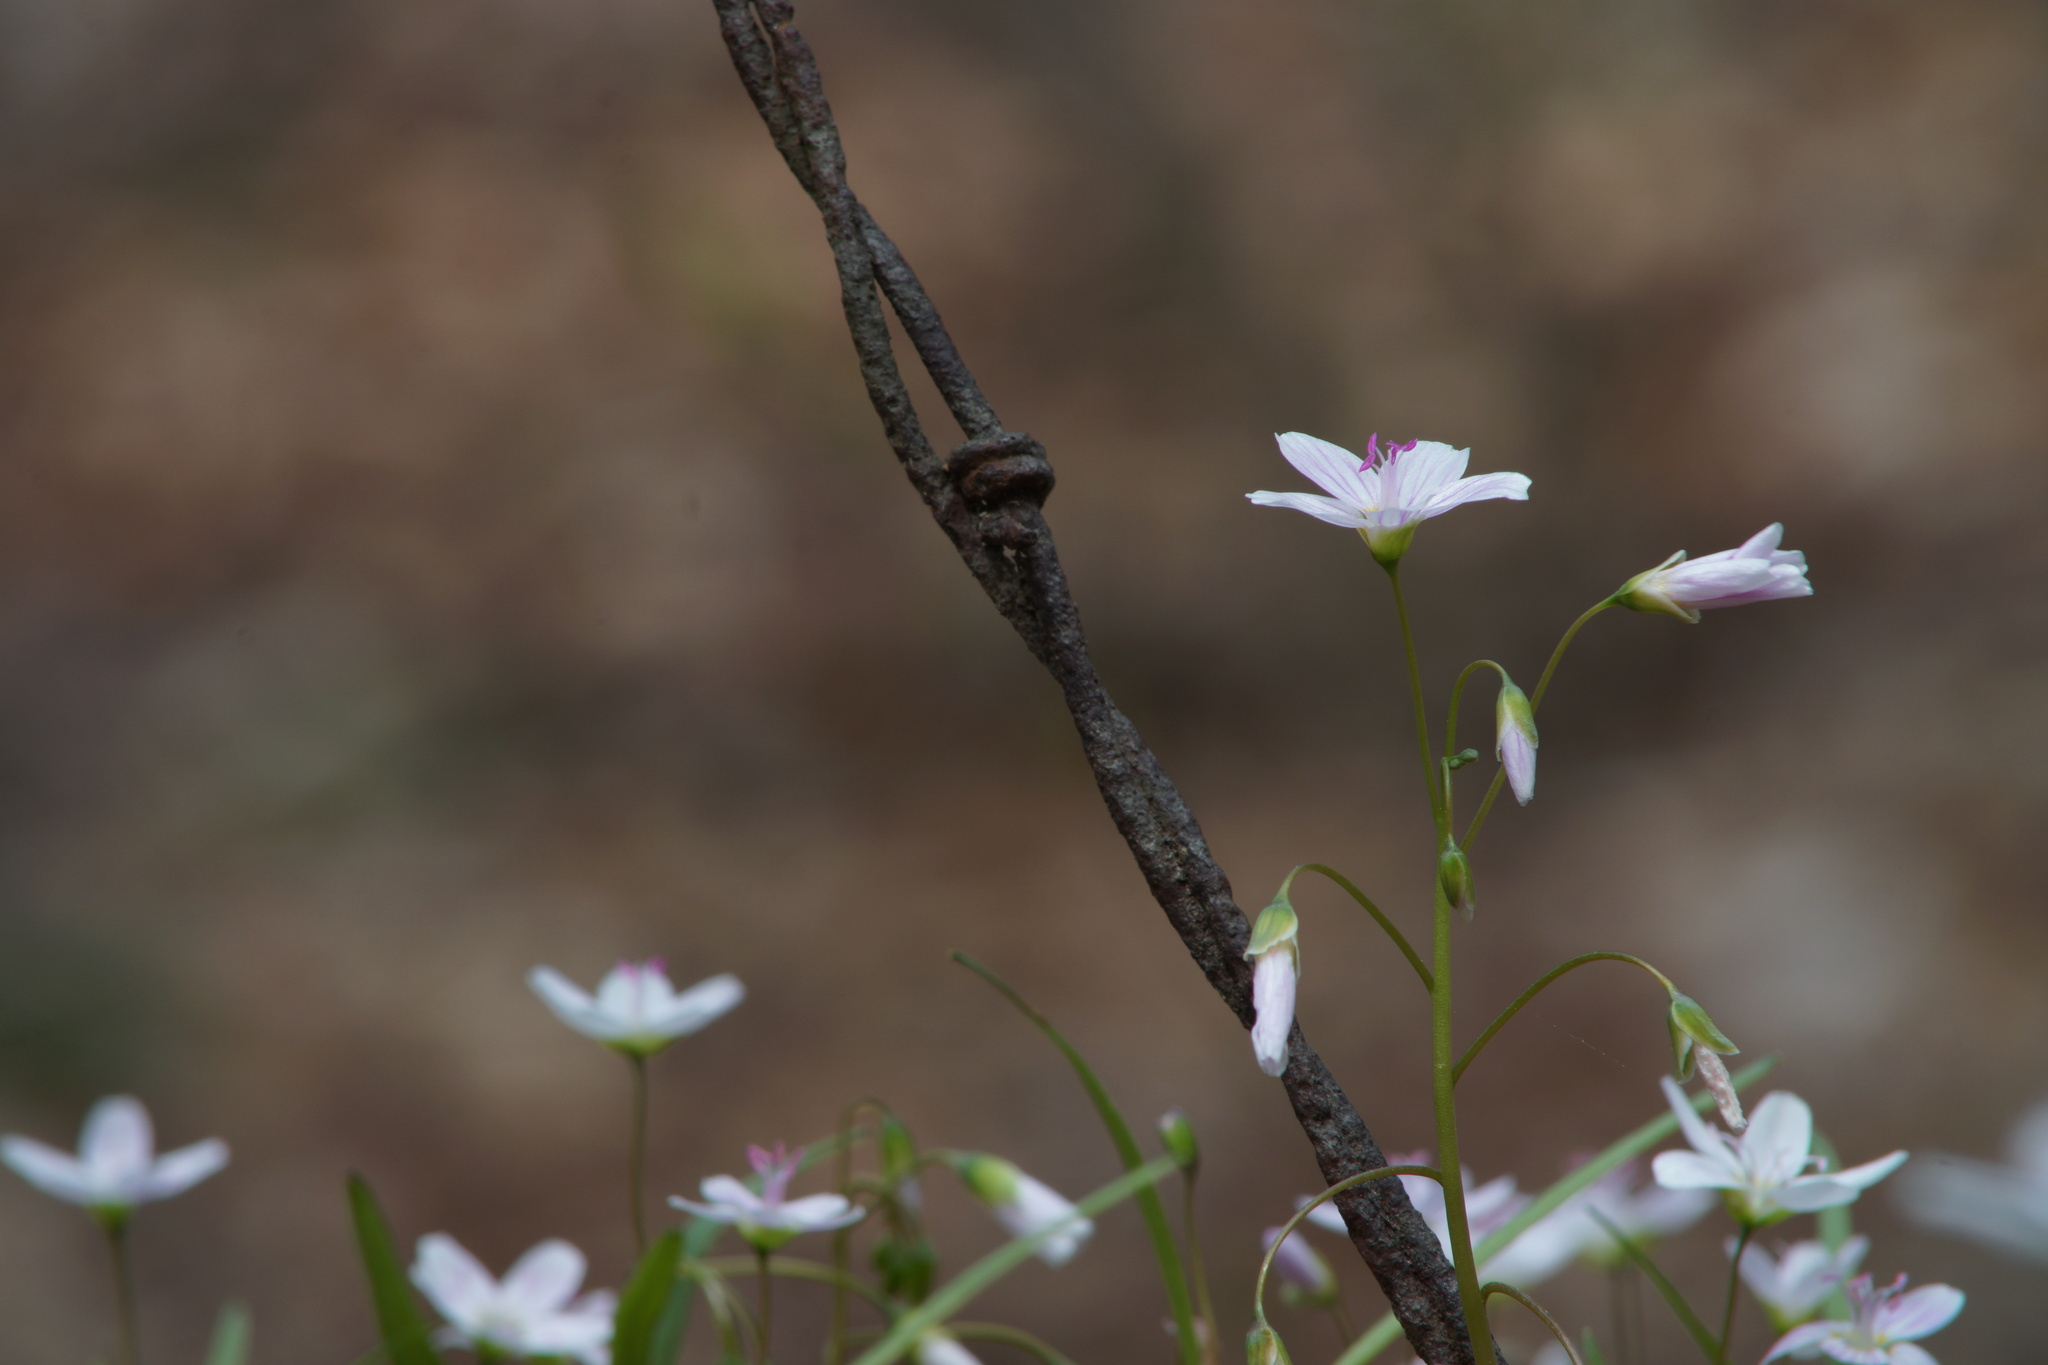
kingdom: Plantae
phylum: Tracheophyta
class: Magnoliopsida
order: Caryophyllales
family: Montiaceae
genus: Claytonia
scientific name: Claytonia virginica
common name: Virginia springbeauty
